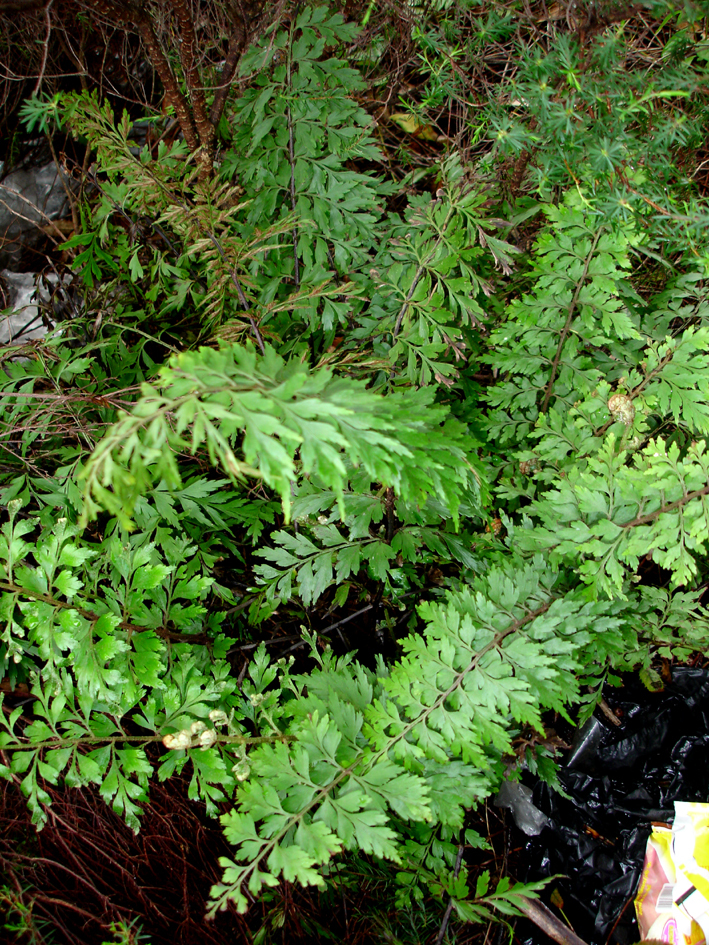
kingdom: Plantae
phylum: Tracheophyta
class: Polypodiopsida
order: Polypodiales
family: Aspleniaceae
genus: Asplenium
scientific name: Asplenium aethiopicum
